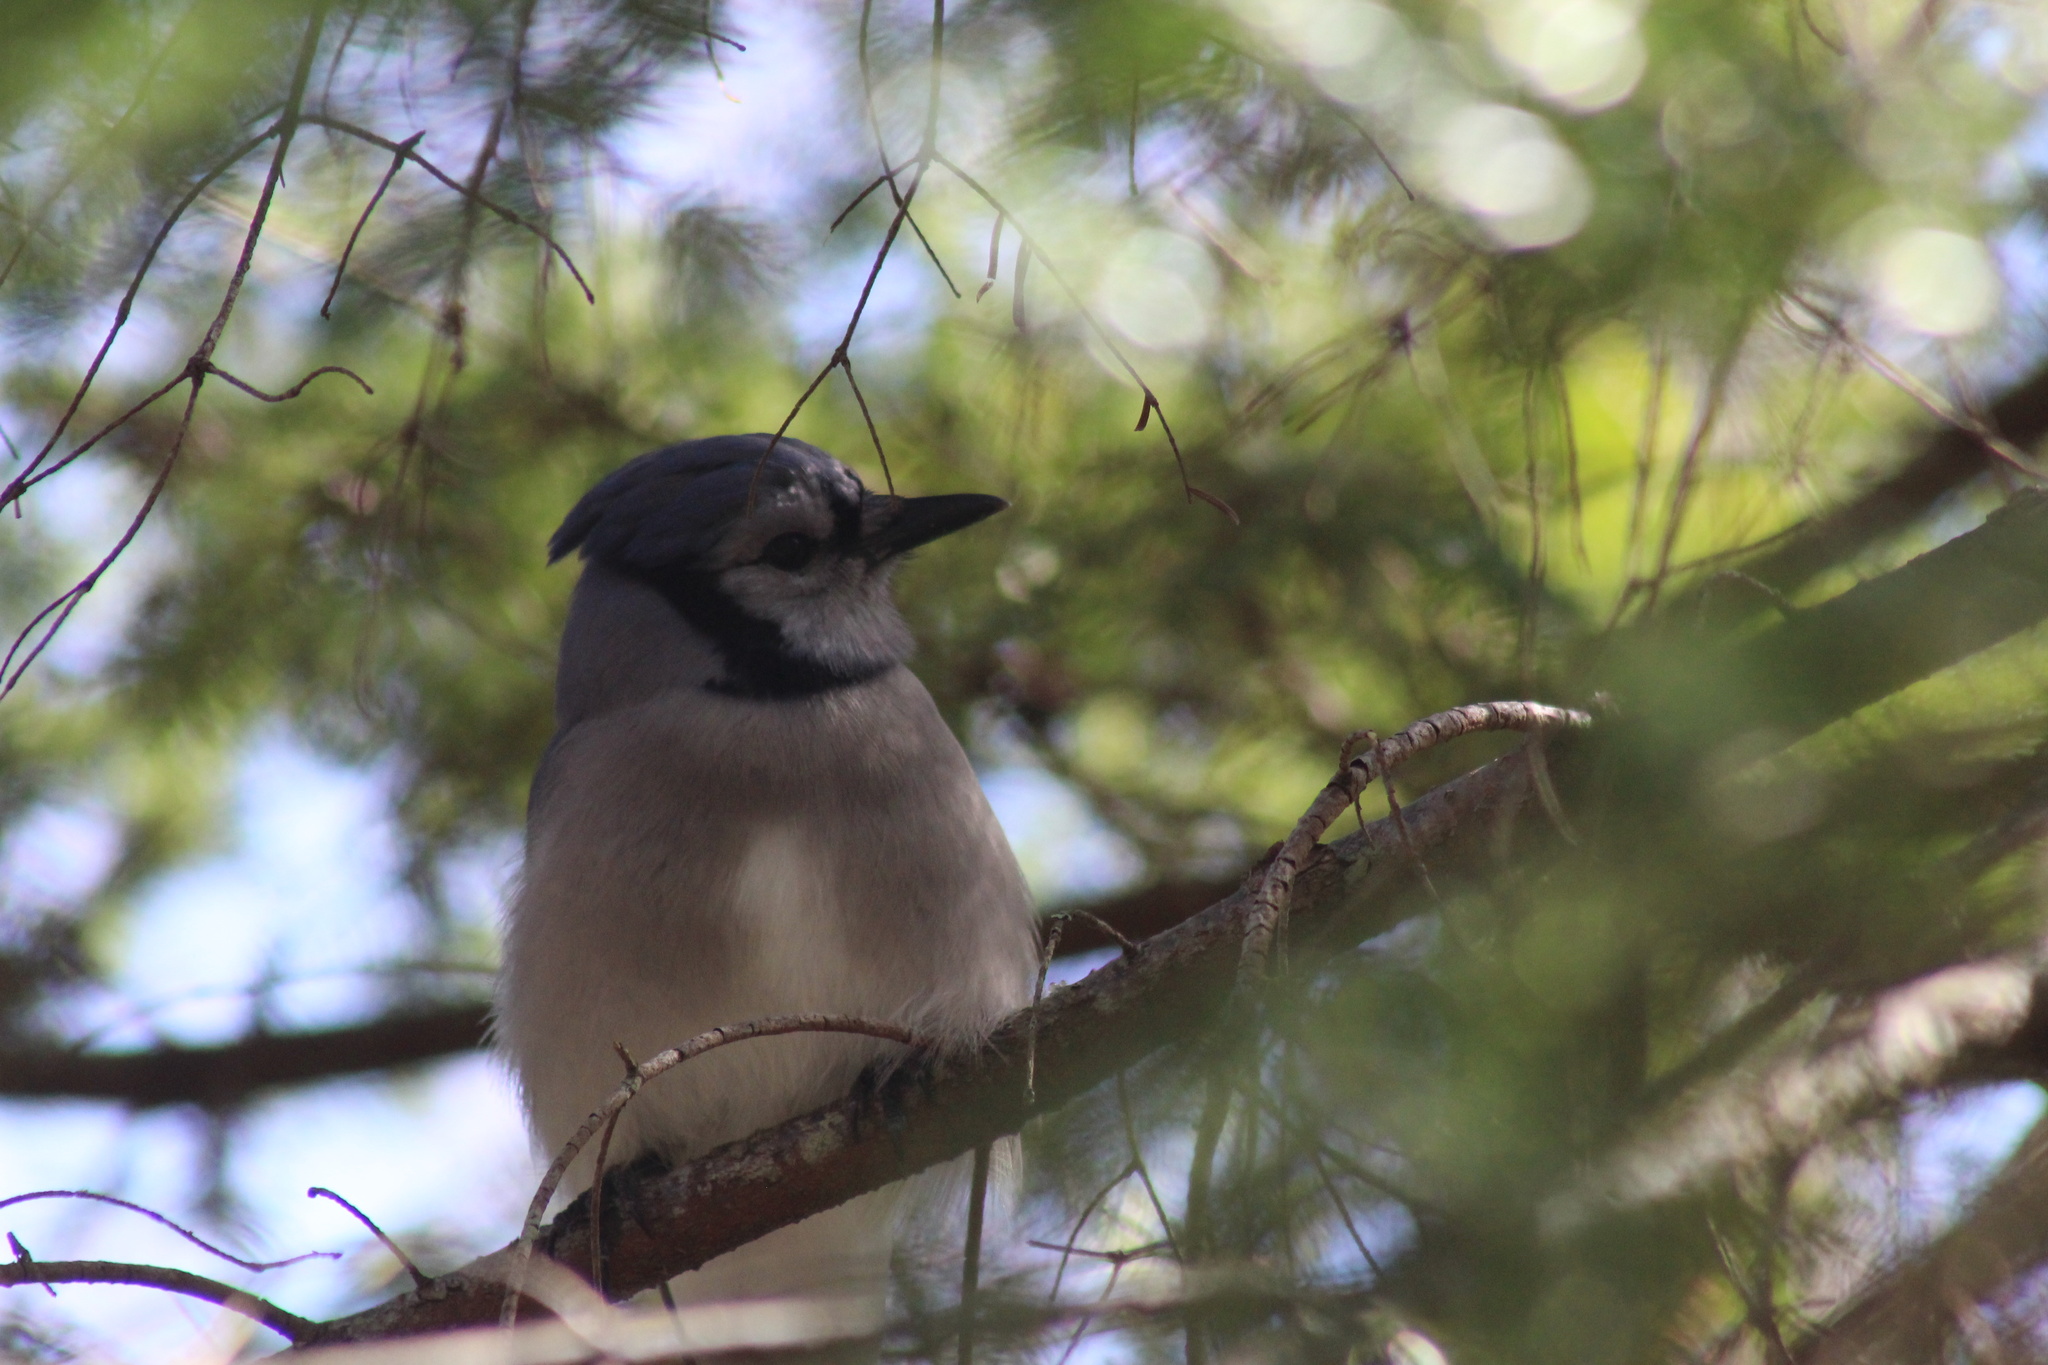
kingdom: Animalia
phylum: Chordata
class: Aves
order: Passeriformes
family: Corvidae
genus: Cyanocitta
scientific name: Cyanocitta cristata
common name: Blue jay
